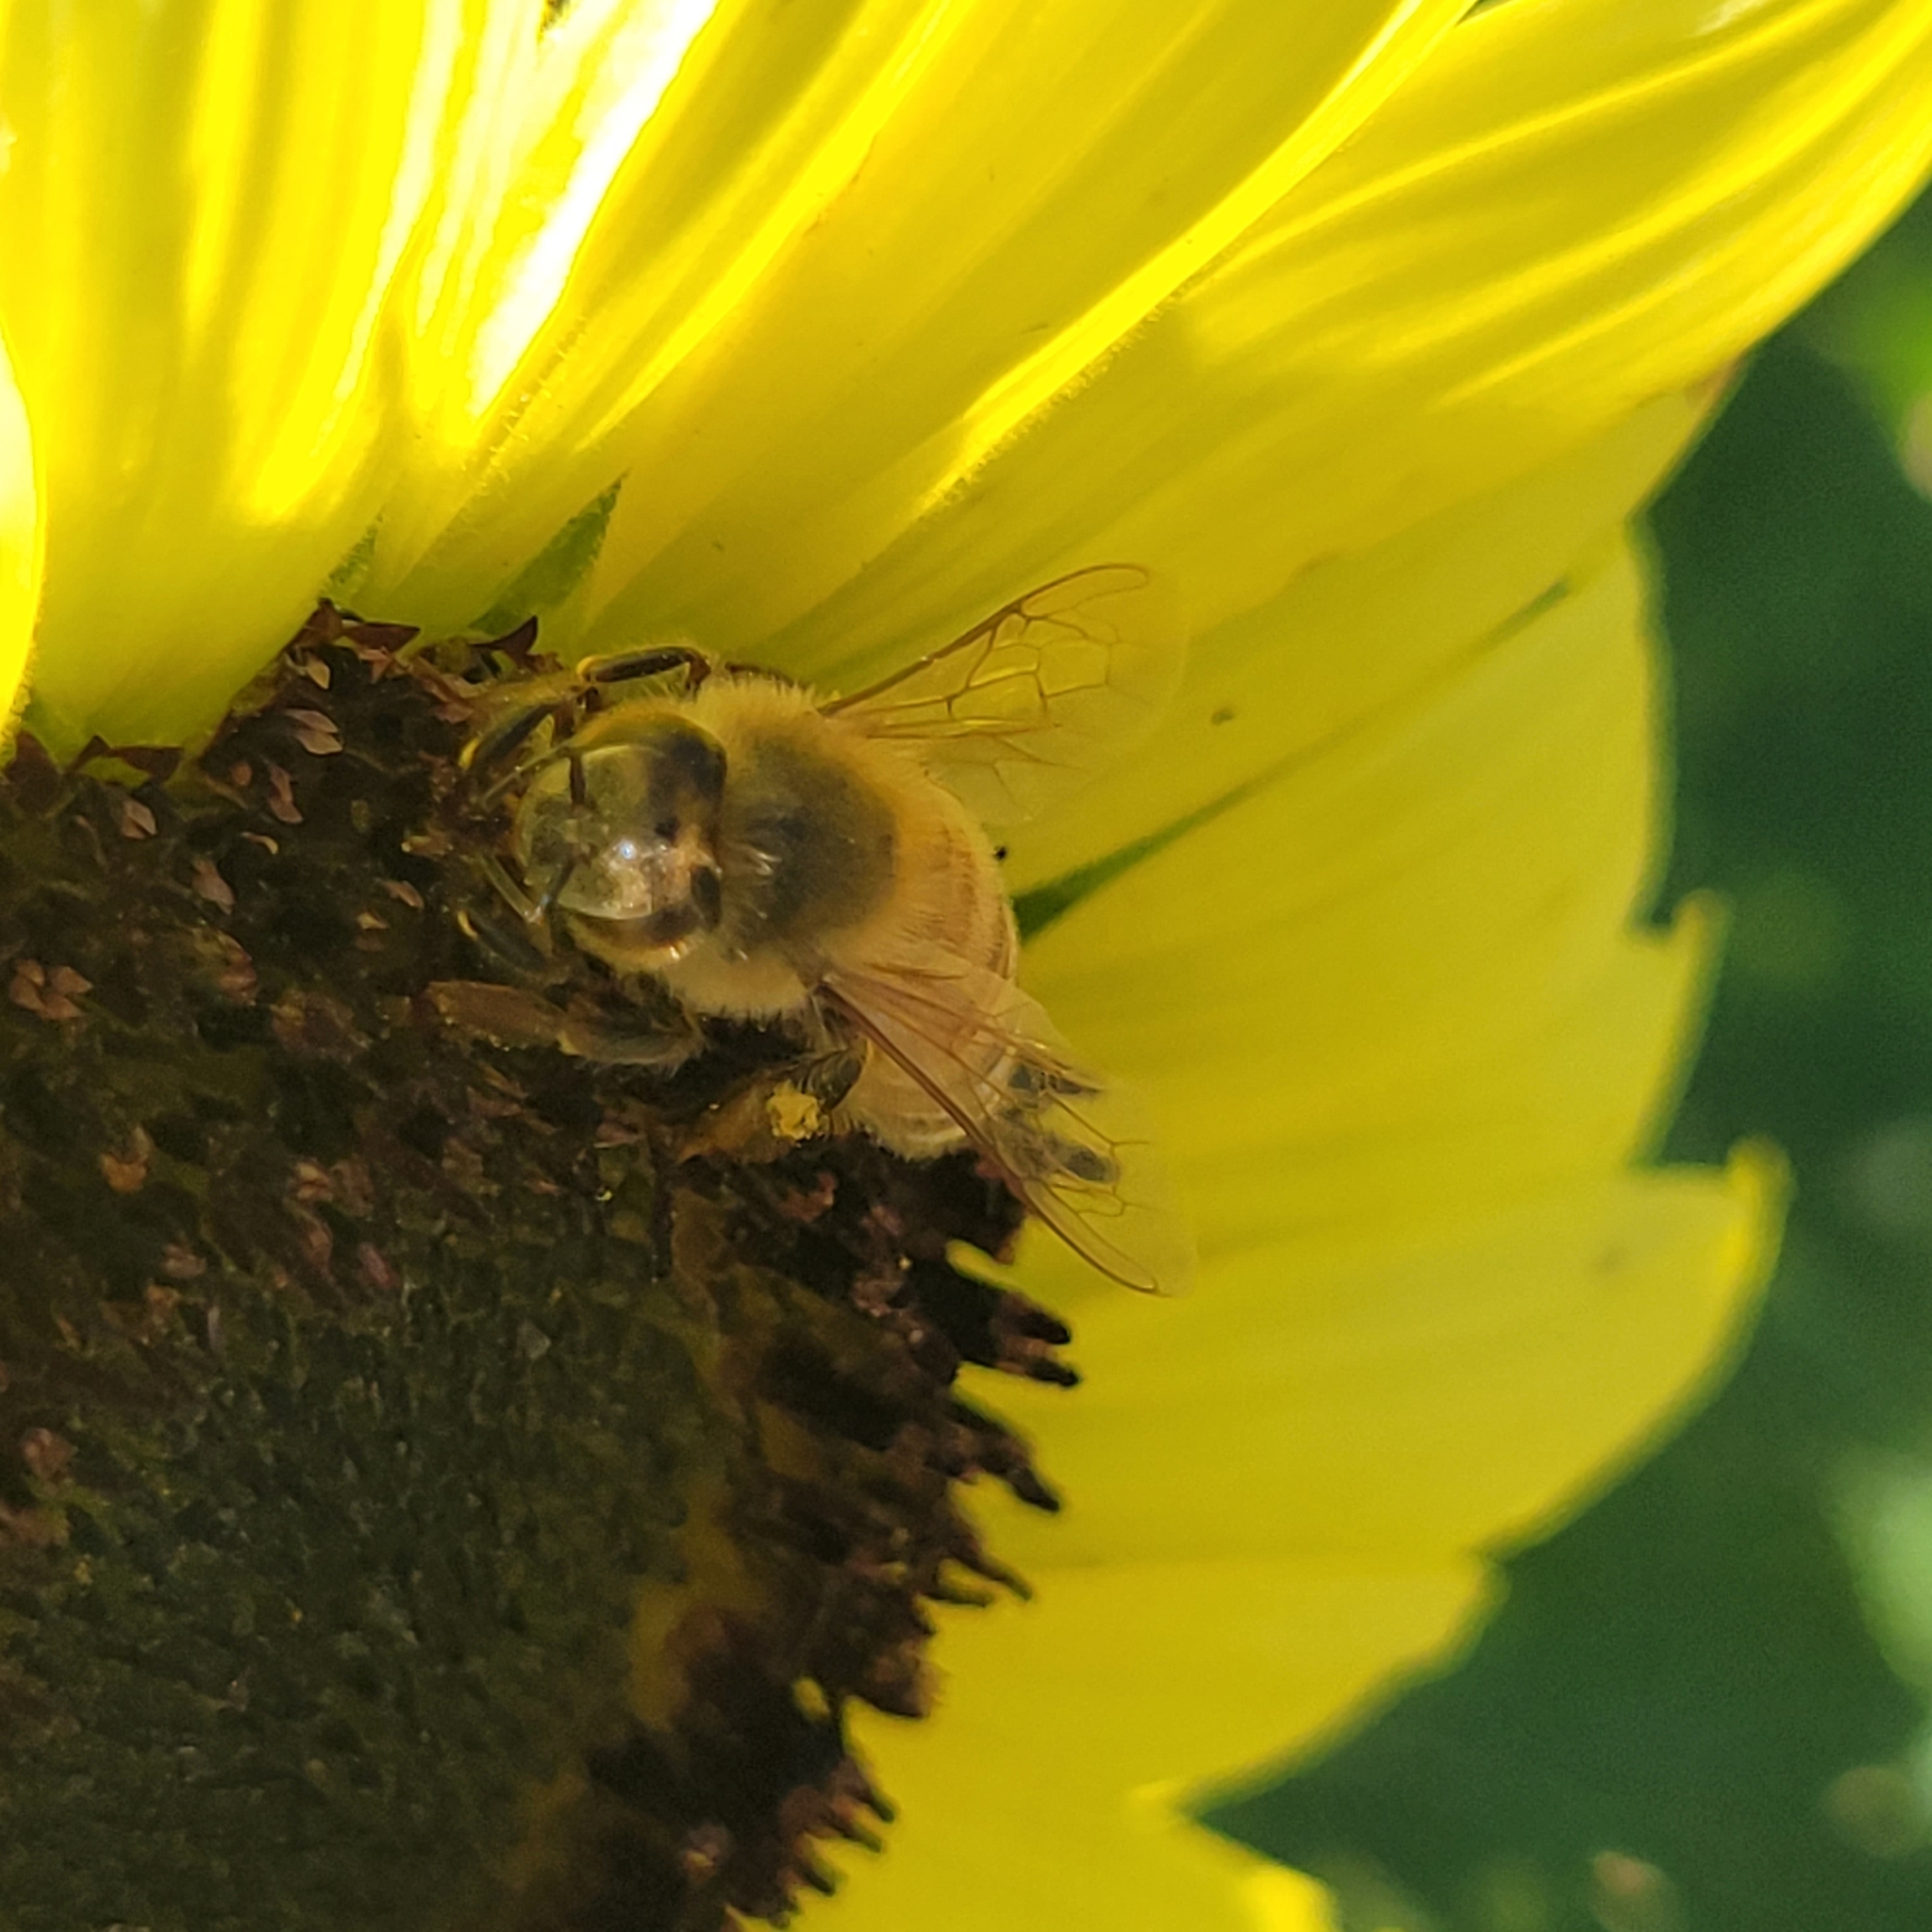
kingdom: Animalia
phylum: Arthropoda
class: Insecta
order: Hymenoptera
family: Apidae
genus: Apis
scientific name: Apis mellifera
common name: Honey bee
